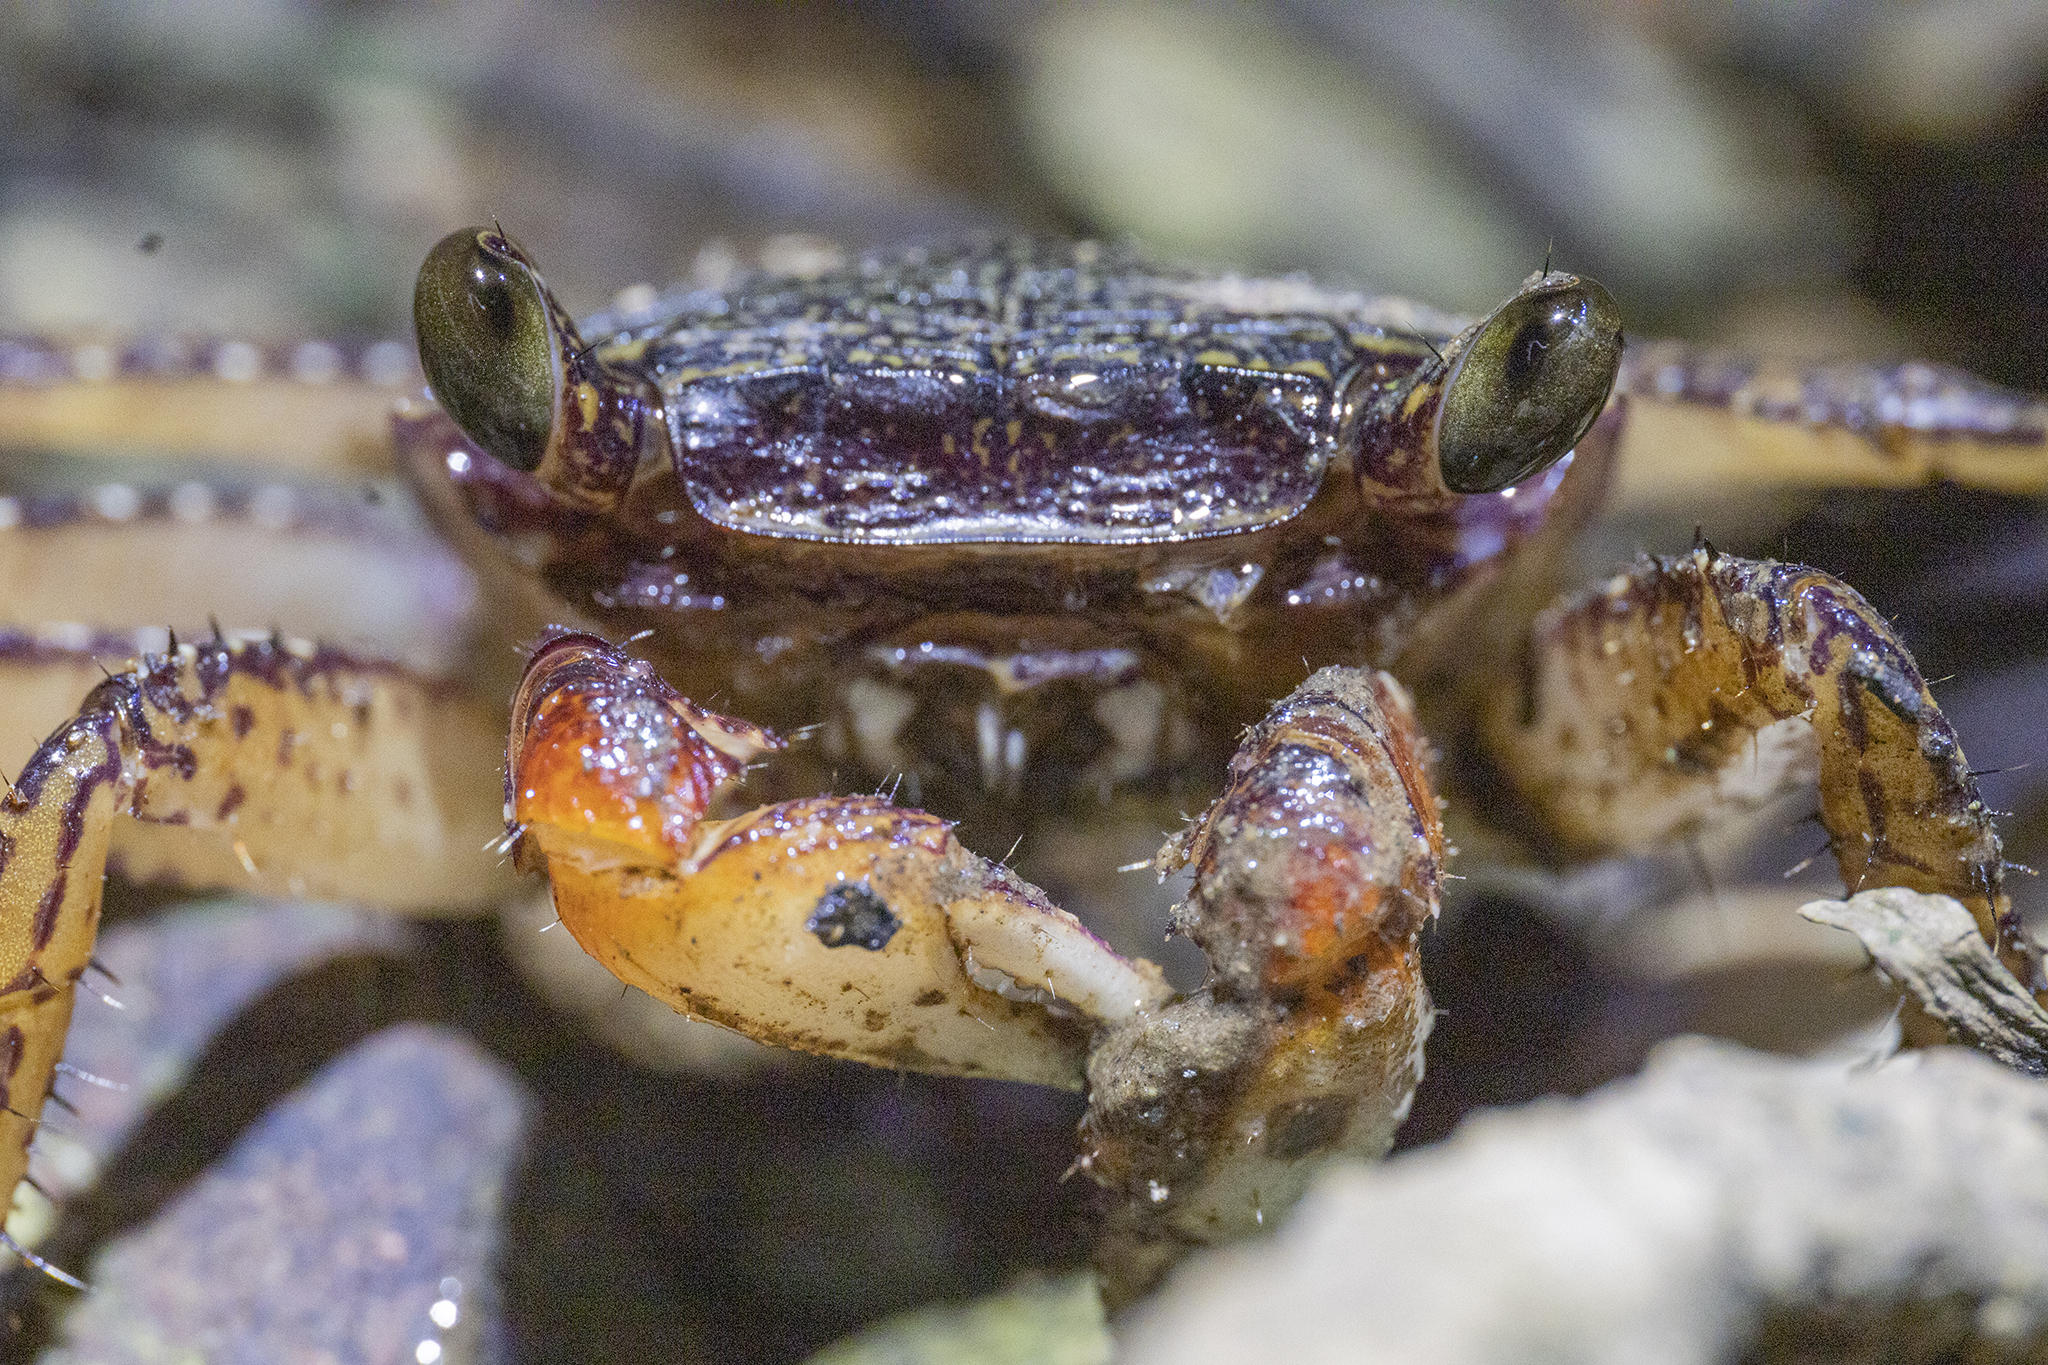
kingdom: Animalia
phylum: Arthropoda
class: Malacostraca
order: Decapoda
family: Grapsidae
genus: Goniopsis
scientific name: Goniopsis pulchra
